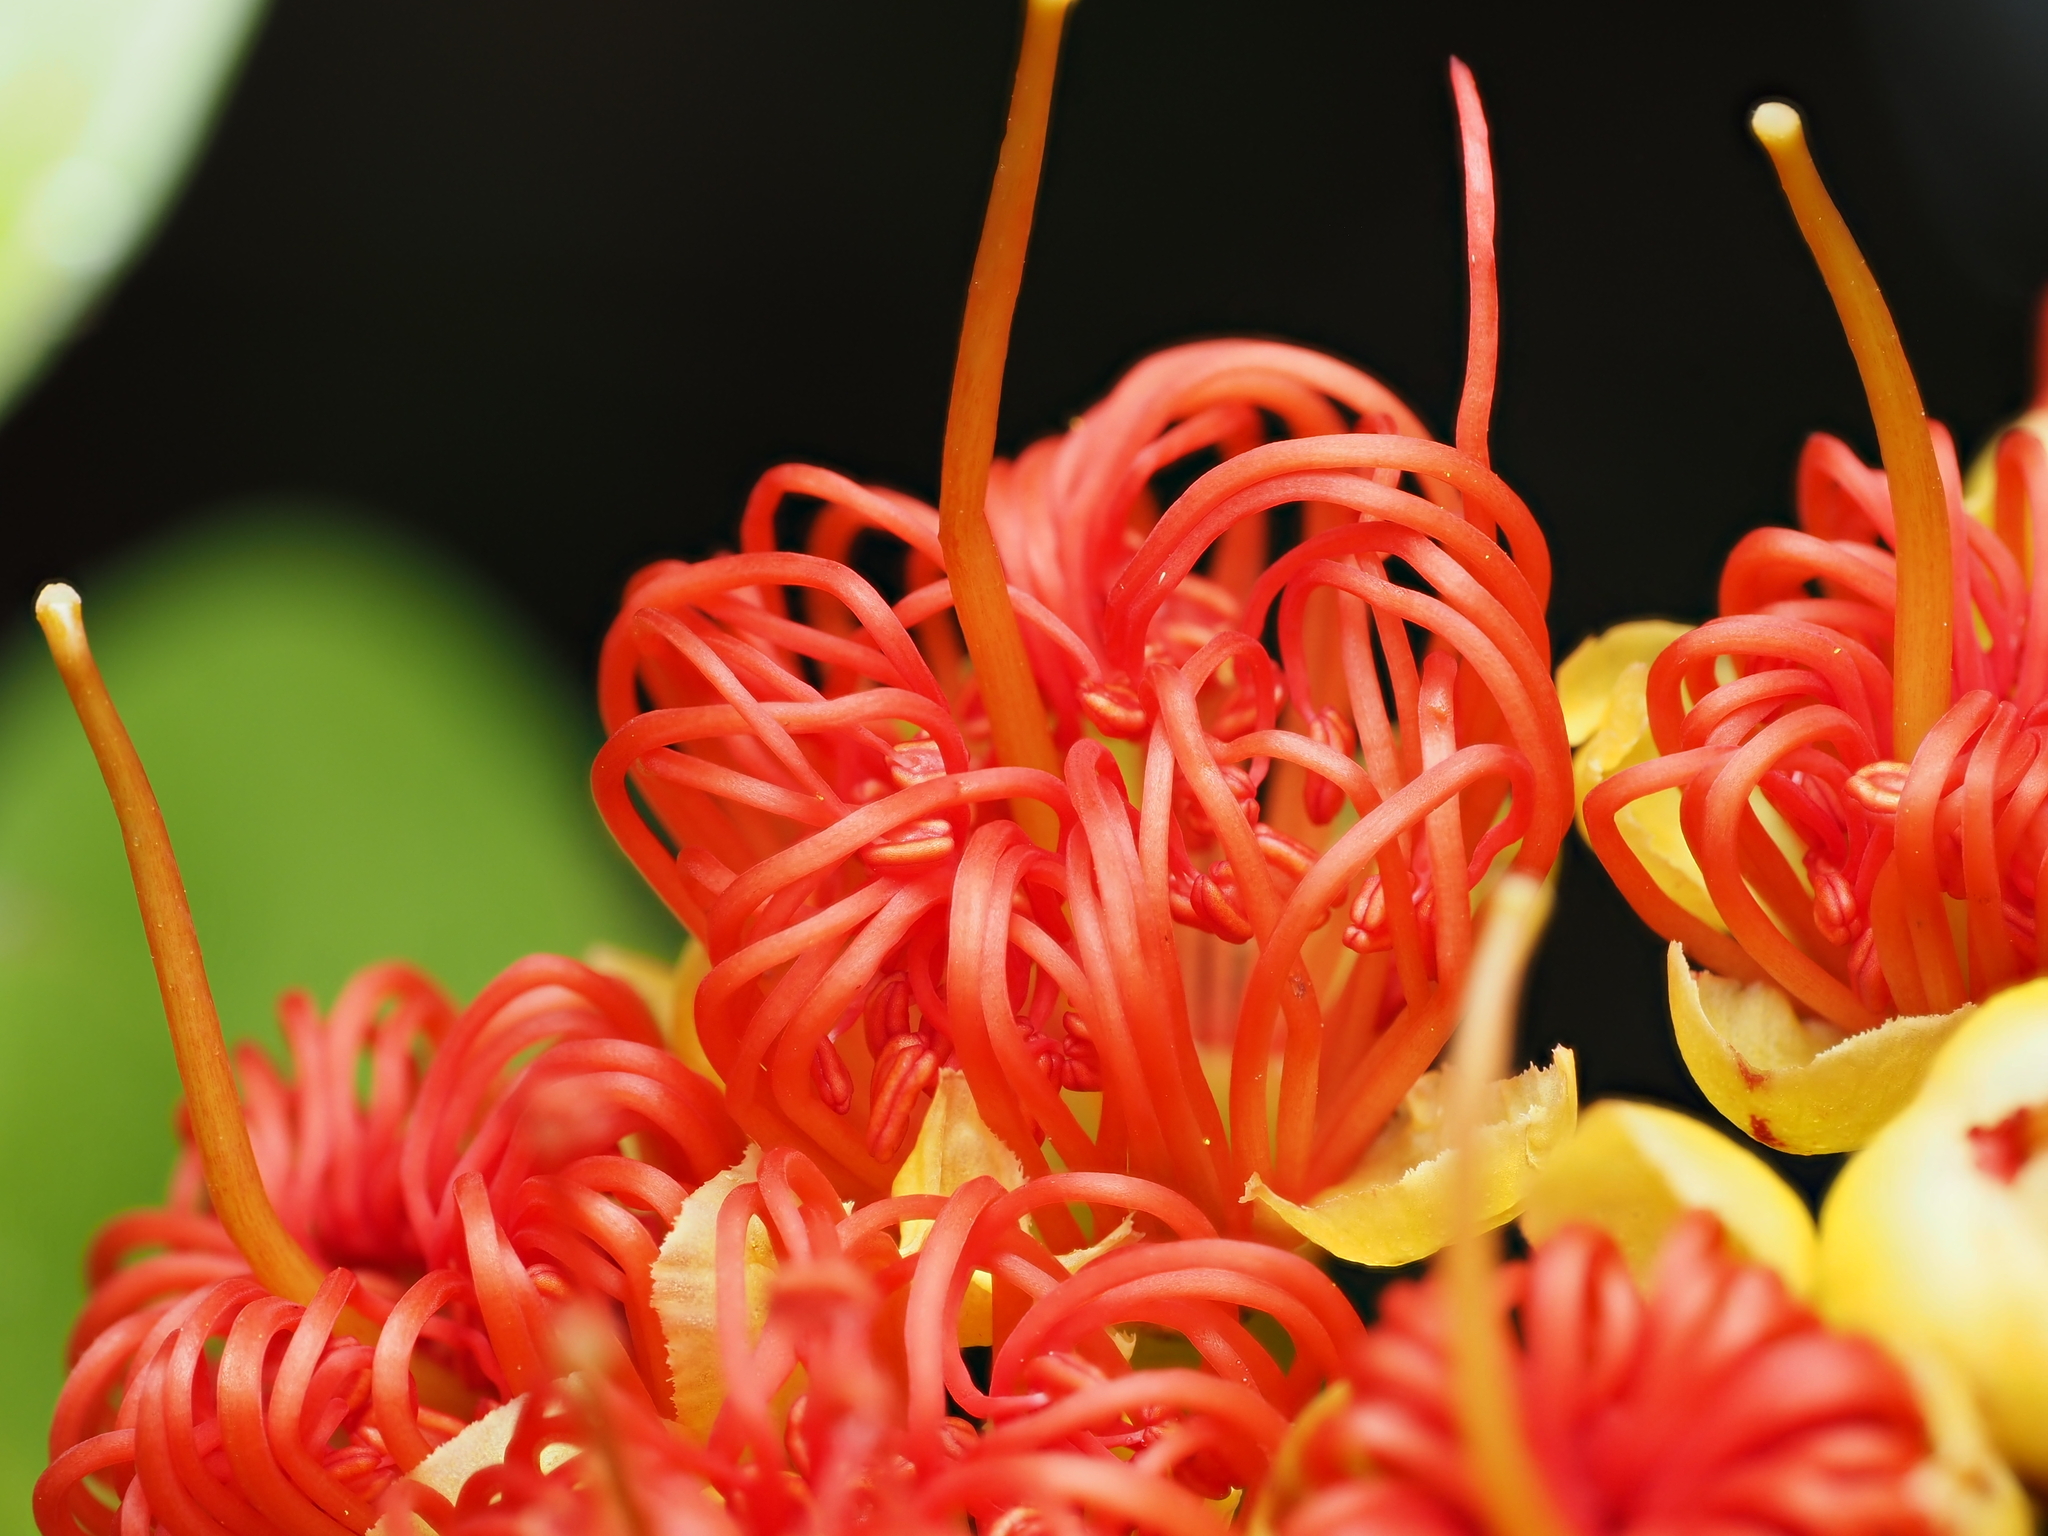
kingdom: Plantae
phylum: Tracheophyta
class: Magnoliopsida
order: Myrtales
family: Myrtaceae
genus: Metrosideros
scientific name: Metrosideros fulgens
